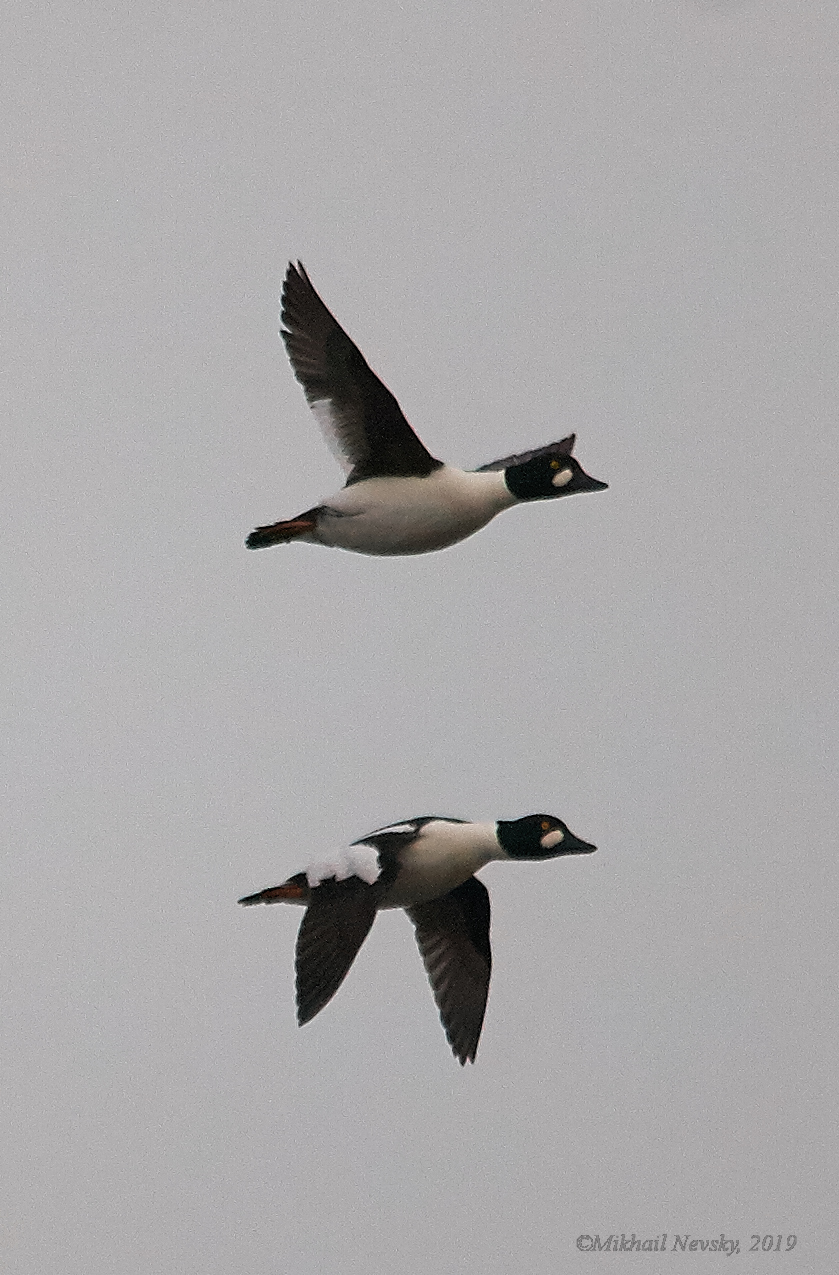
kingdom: Animalia
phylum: Chordata
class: Aves
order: Anseriformes
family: Anatidae
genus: Bucephala
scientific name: Bucephala clangula
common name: Common goldeneye
